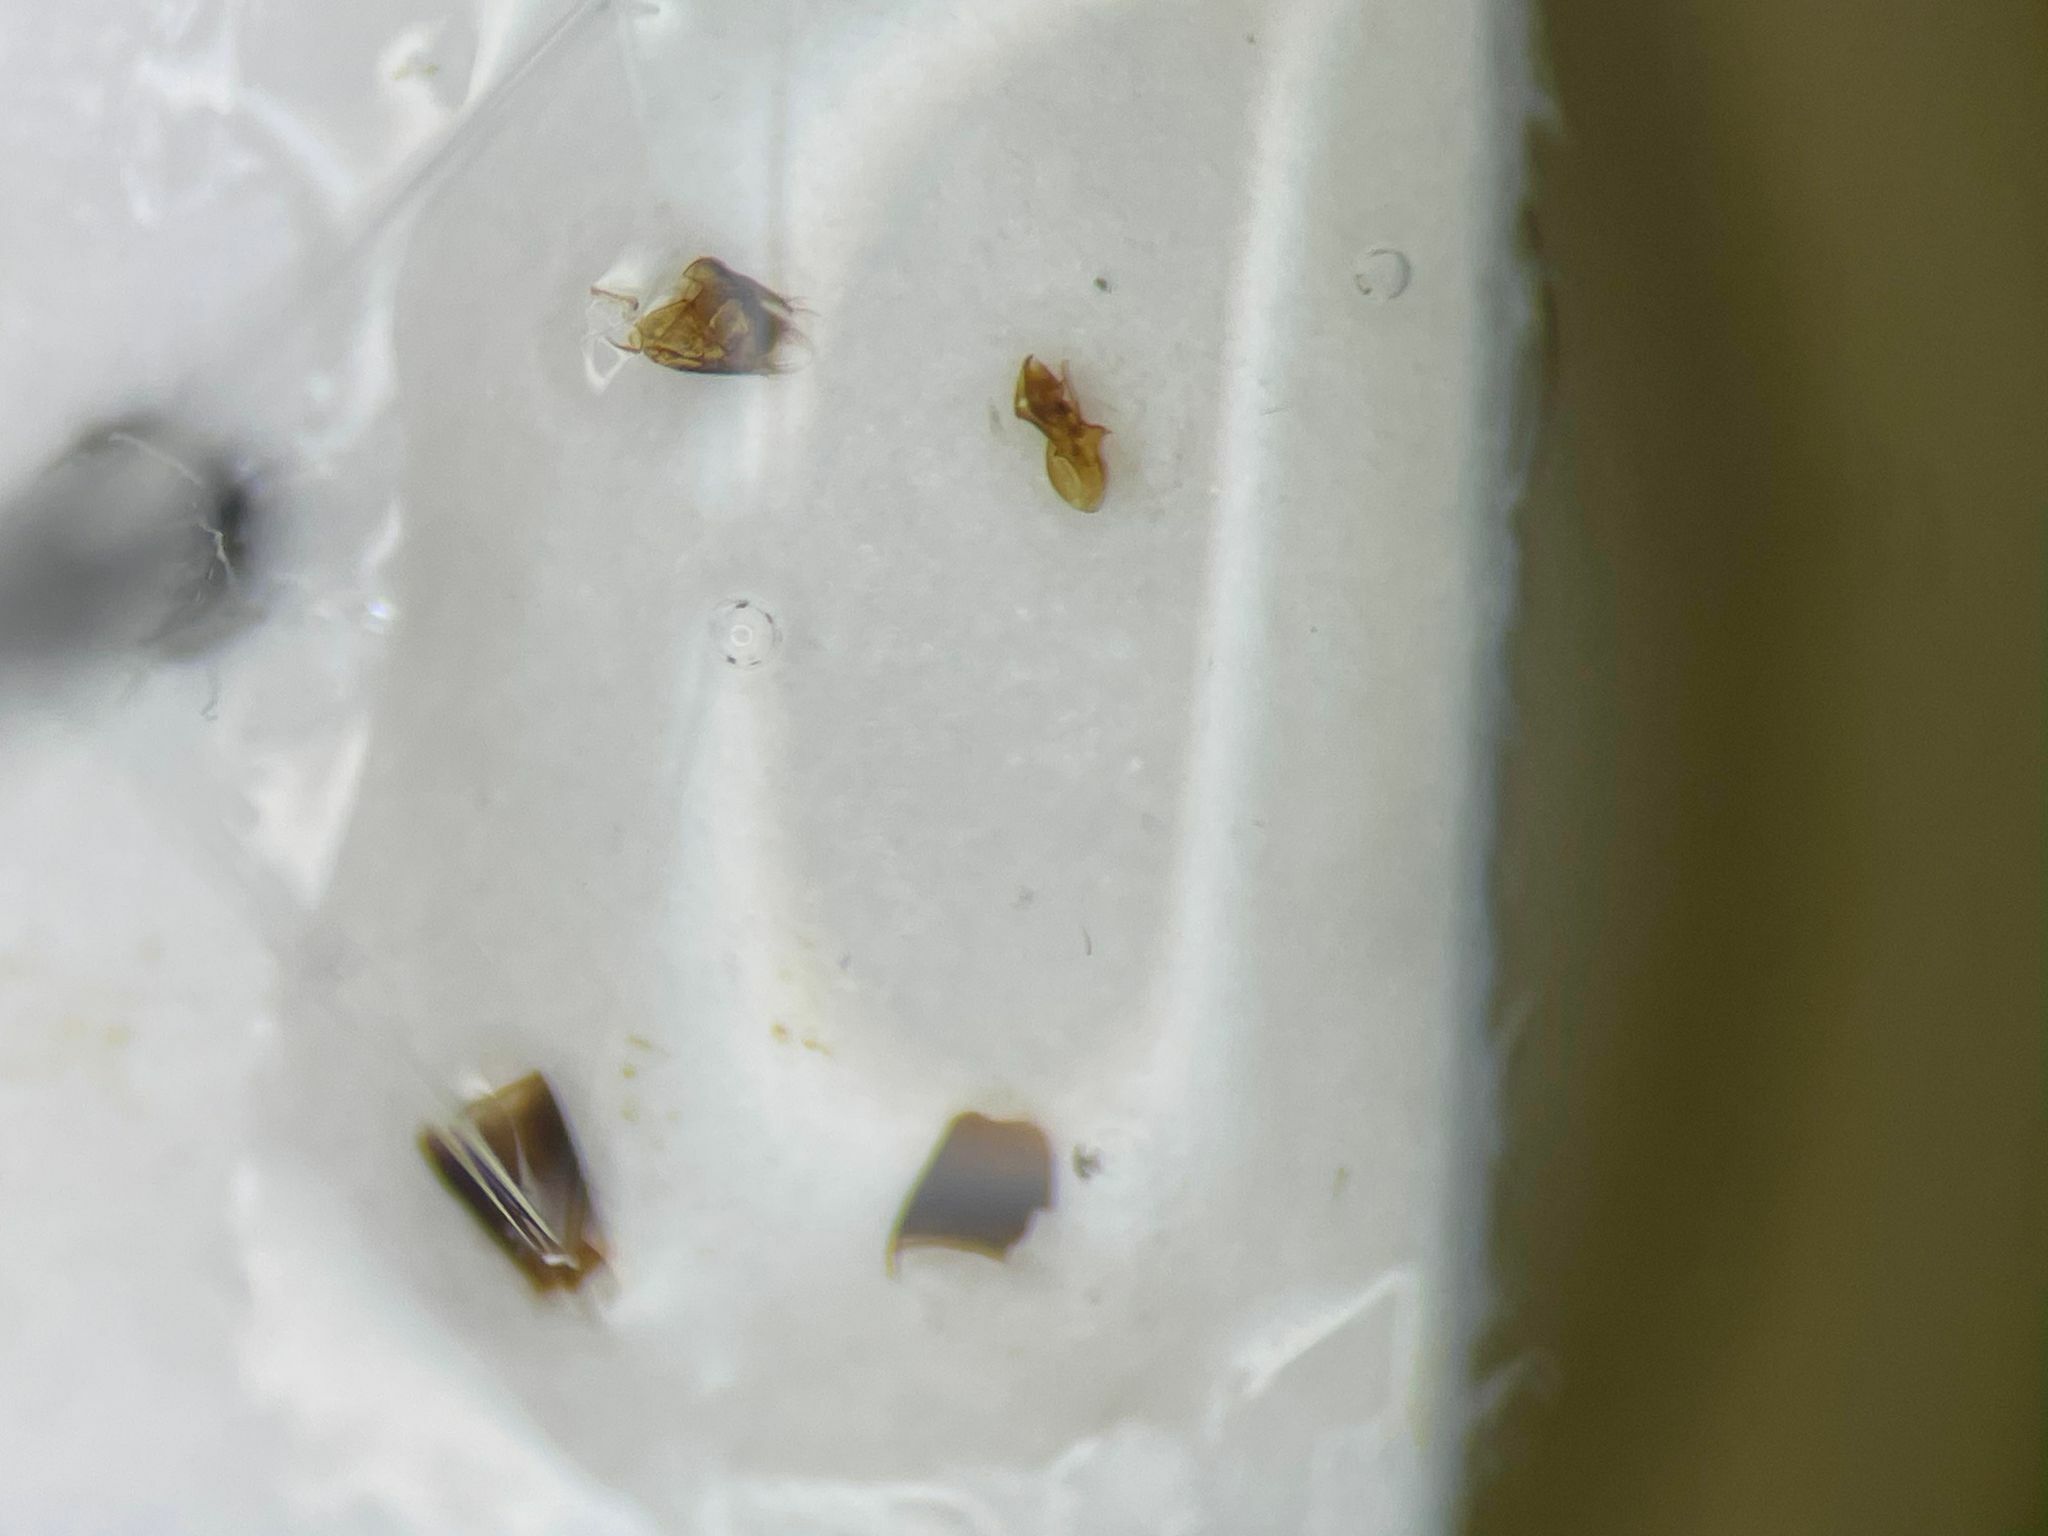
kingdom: Animalia
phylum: Arthropoda
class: Insecta
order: Coleoptera
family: Staphylinidae
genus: Atheta
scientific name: Atheta palustris
